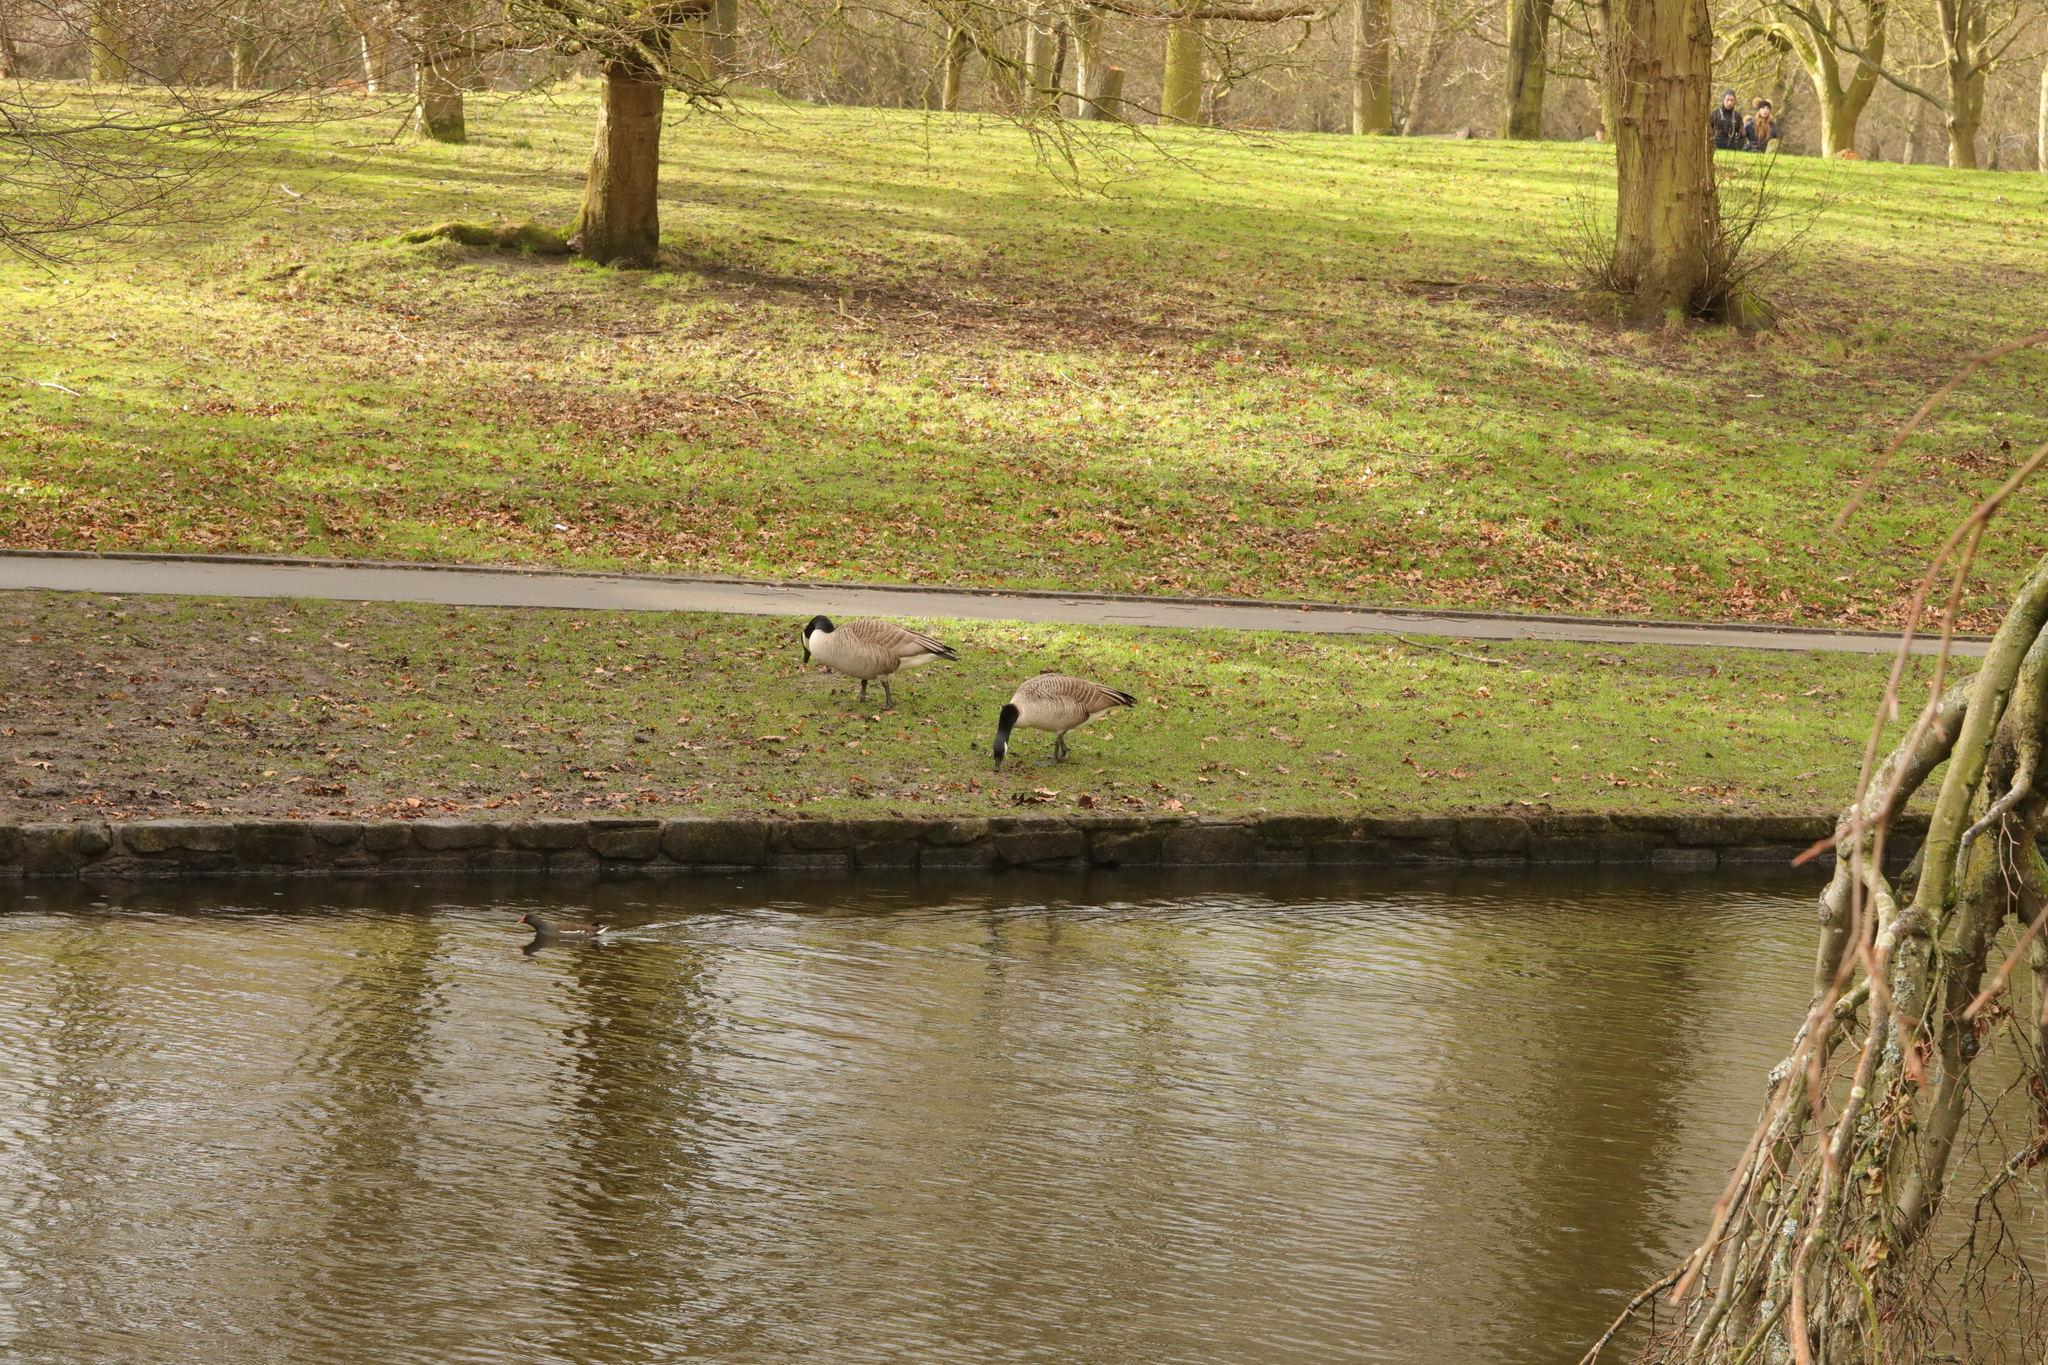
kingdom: Animalia
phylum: Chordata
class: Aves
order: Gruiformes
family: Rallidae
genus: Gallinula
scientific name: Gallinula chloropus
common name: Common moorhen
